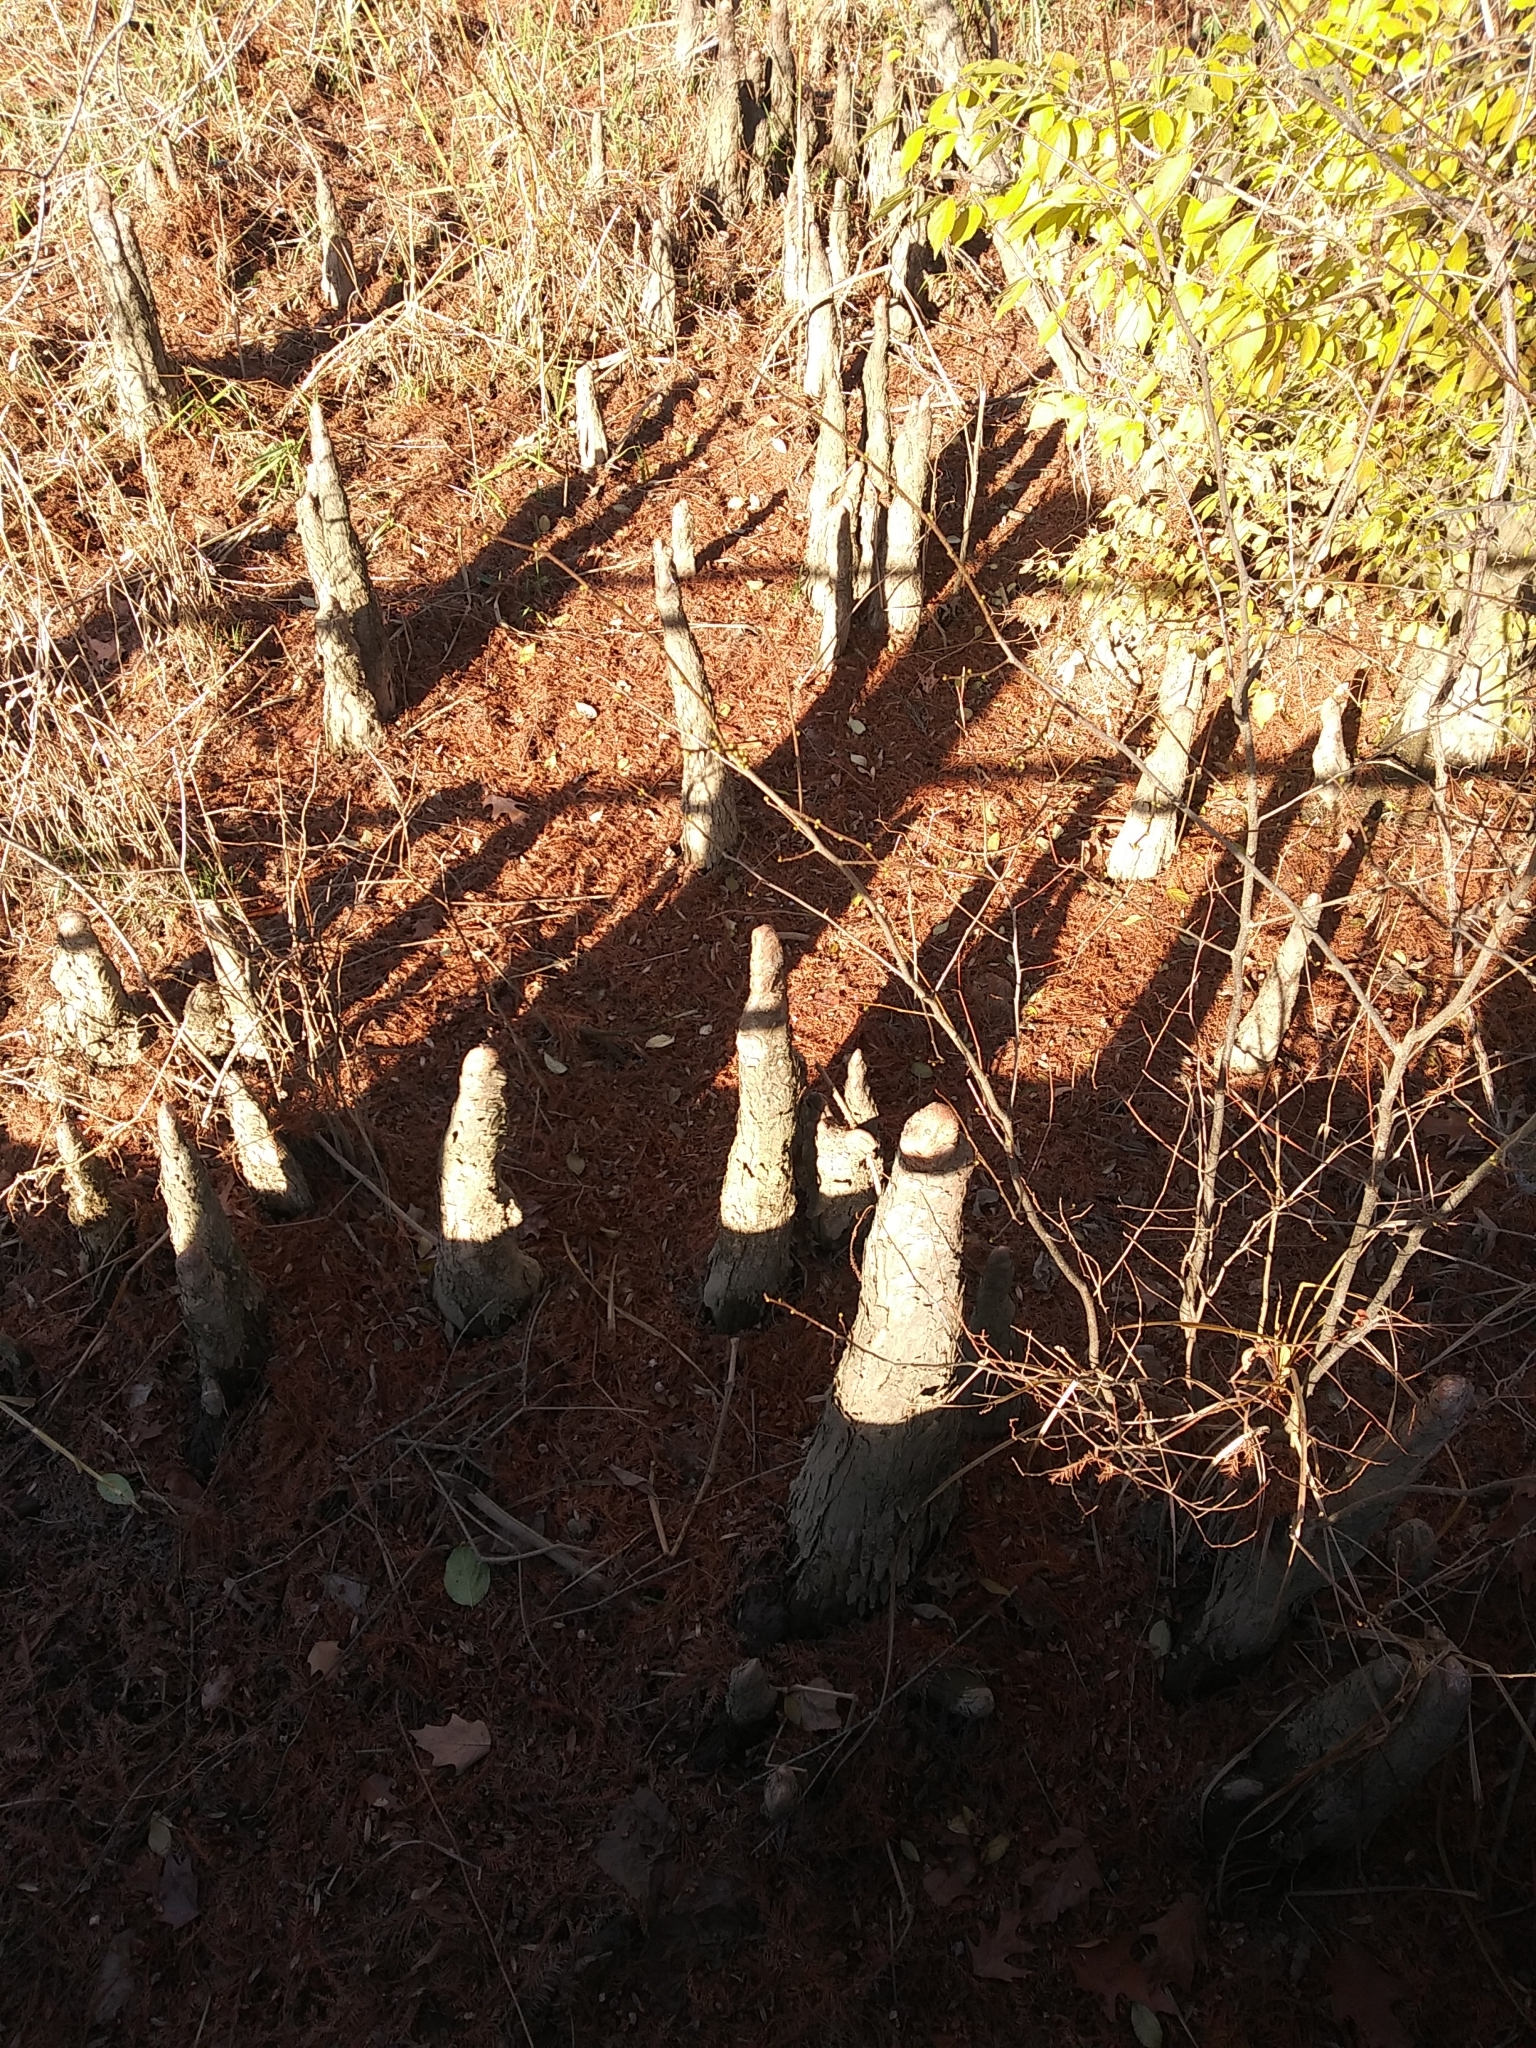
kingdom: Plantae
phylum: Tracheophyta
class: Pinopsida
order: Pinales
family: Cupressaceae
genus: Taxodium
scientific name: Taxodium distichum
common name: Bald cypress
